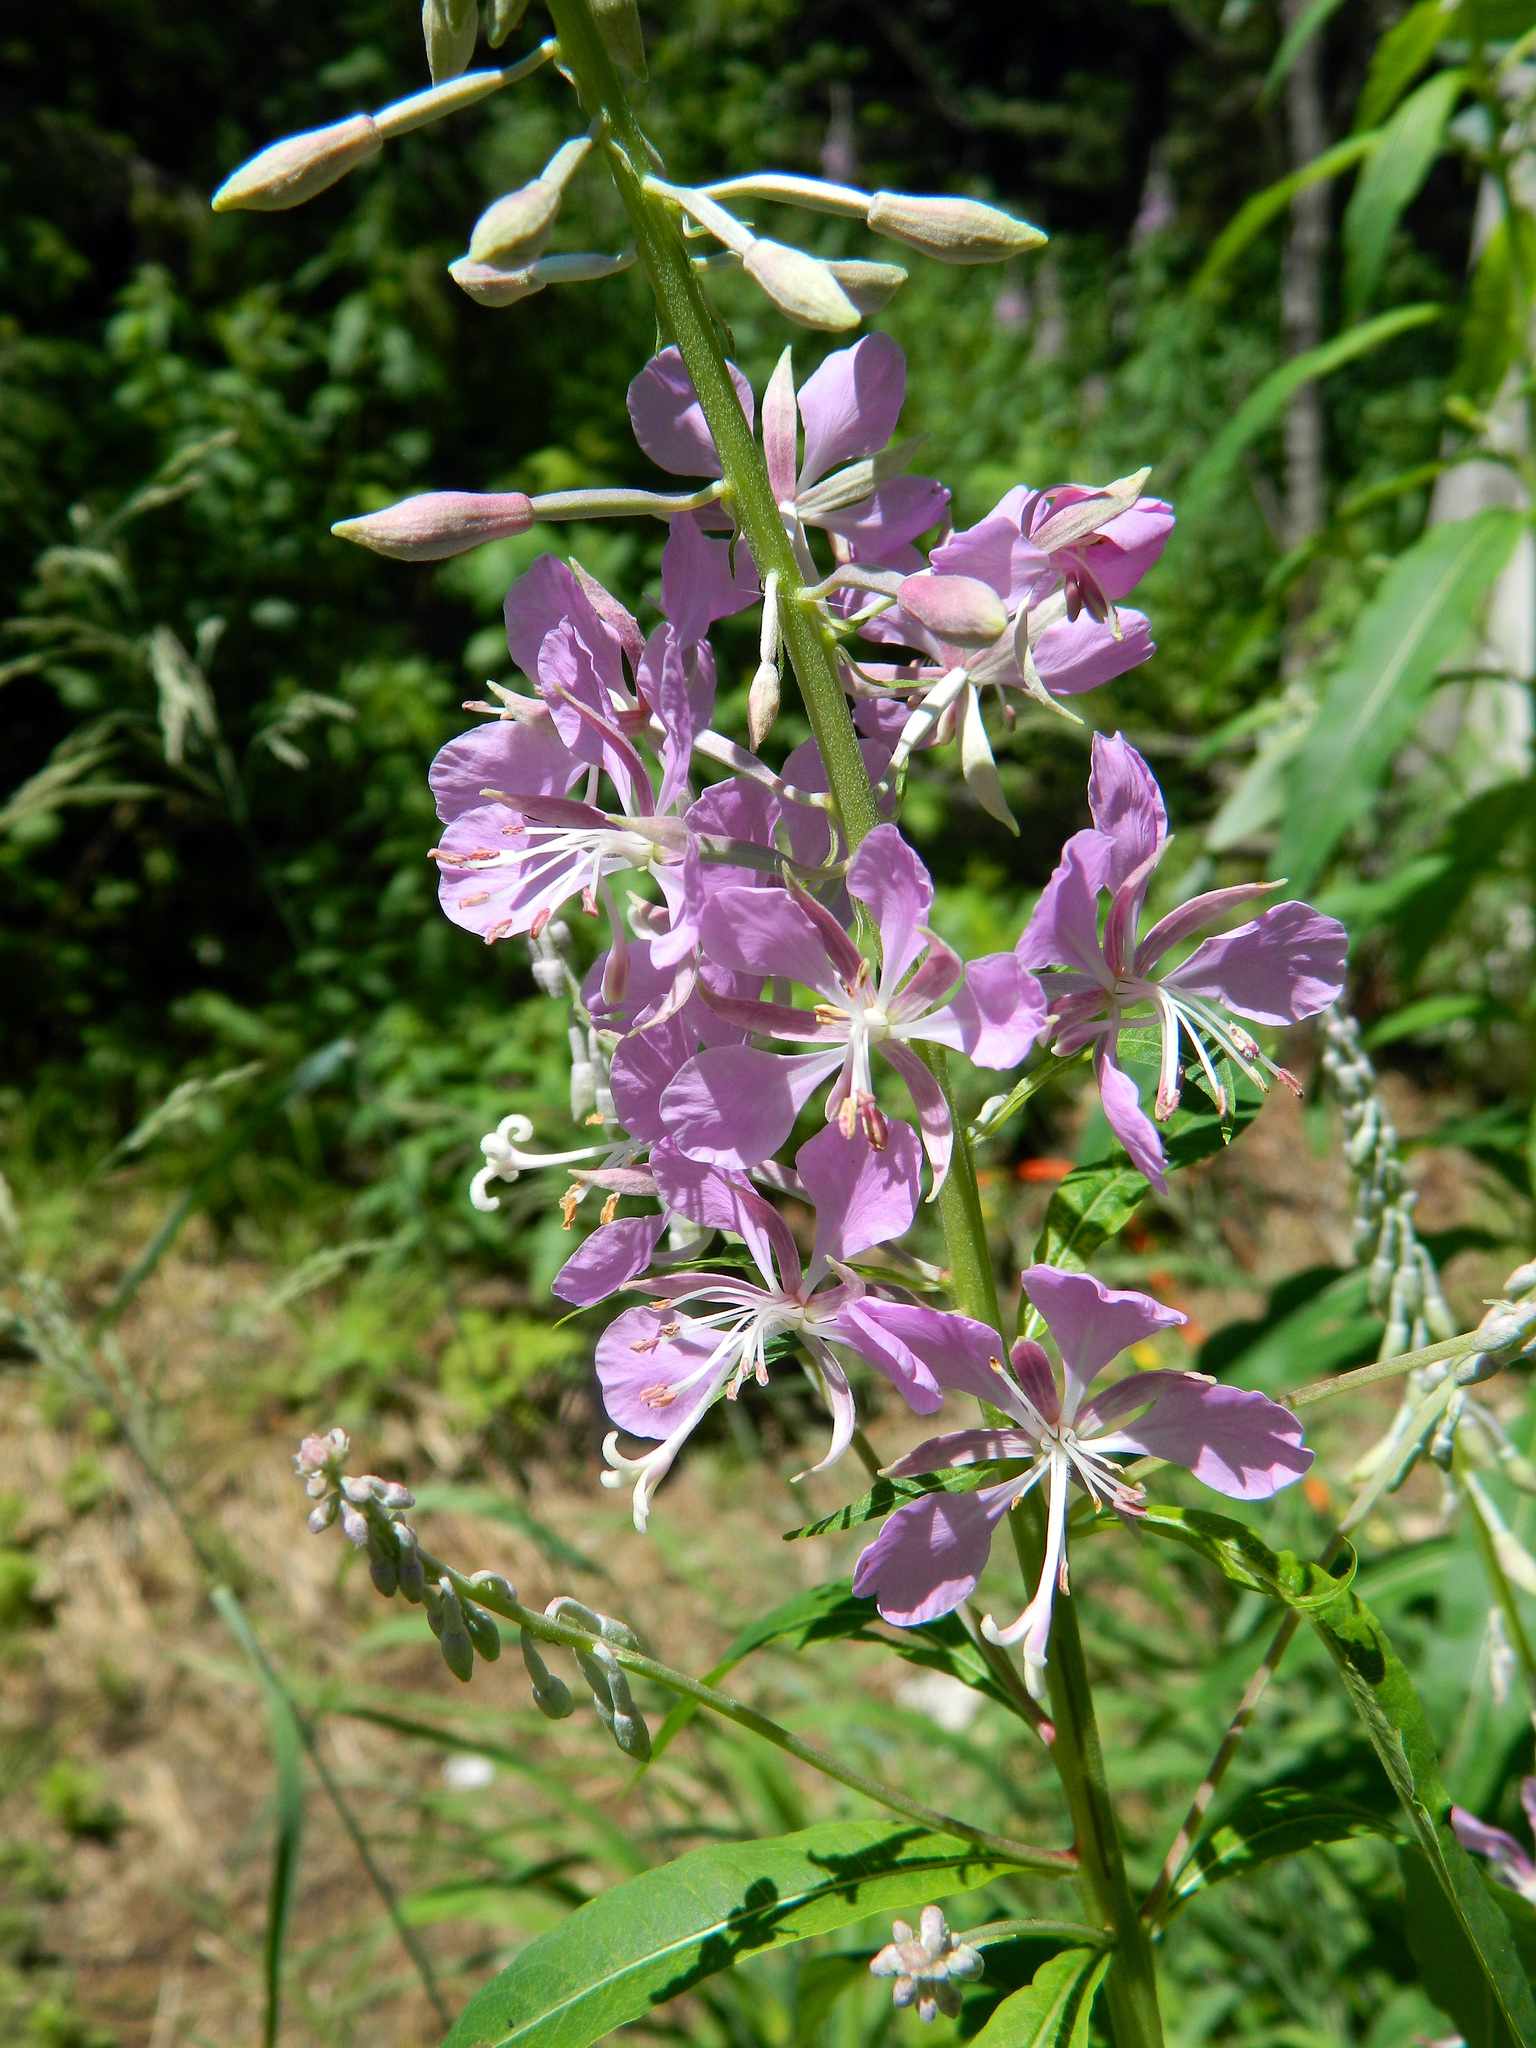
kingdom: Plantae
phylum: Tracheophyta
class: Magnoliopsida
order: Myrtales
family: Onagraceae
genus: Chamaenerion
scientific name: Chamaenerion angustifolium
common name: Fireweed
